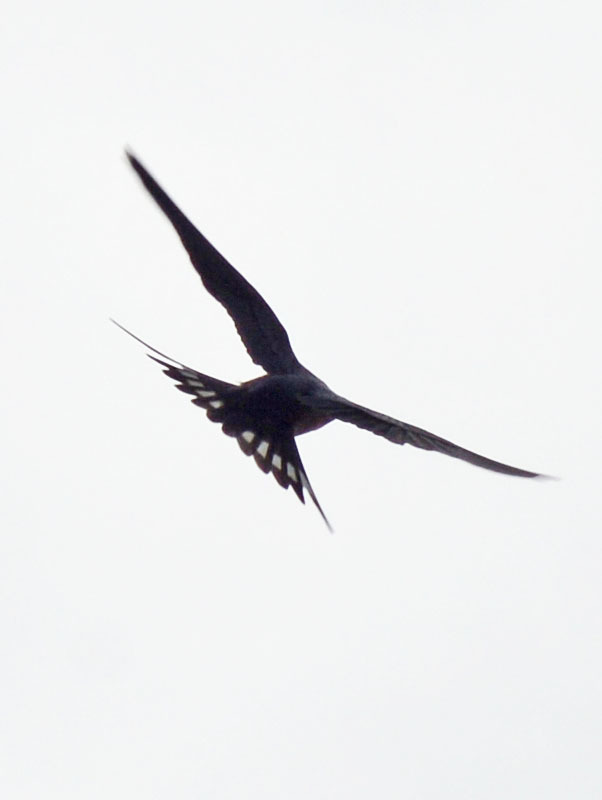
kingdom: Animalia
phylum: Chordata
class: Aves
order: Passeriformes
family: Hirundinidae
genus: Hirundo
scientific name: Hirundo rustica
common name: Barn swallow
